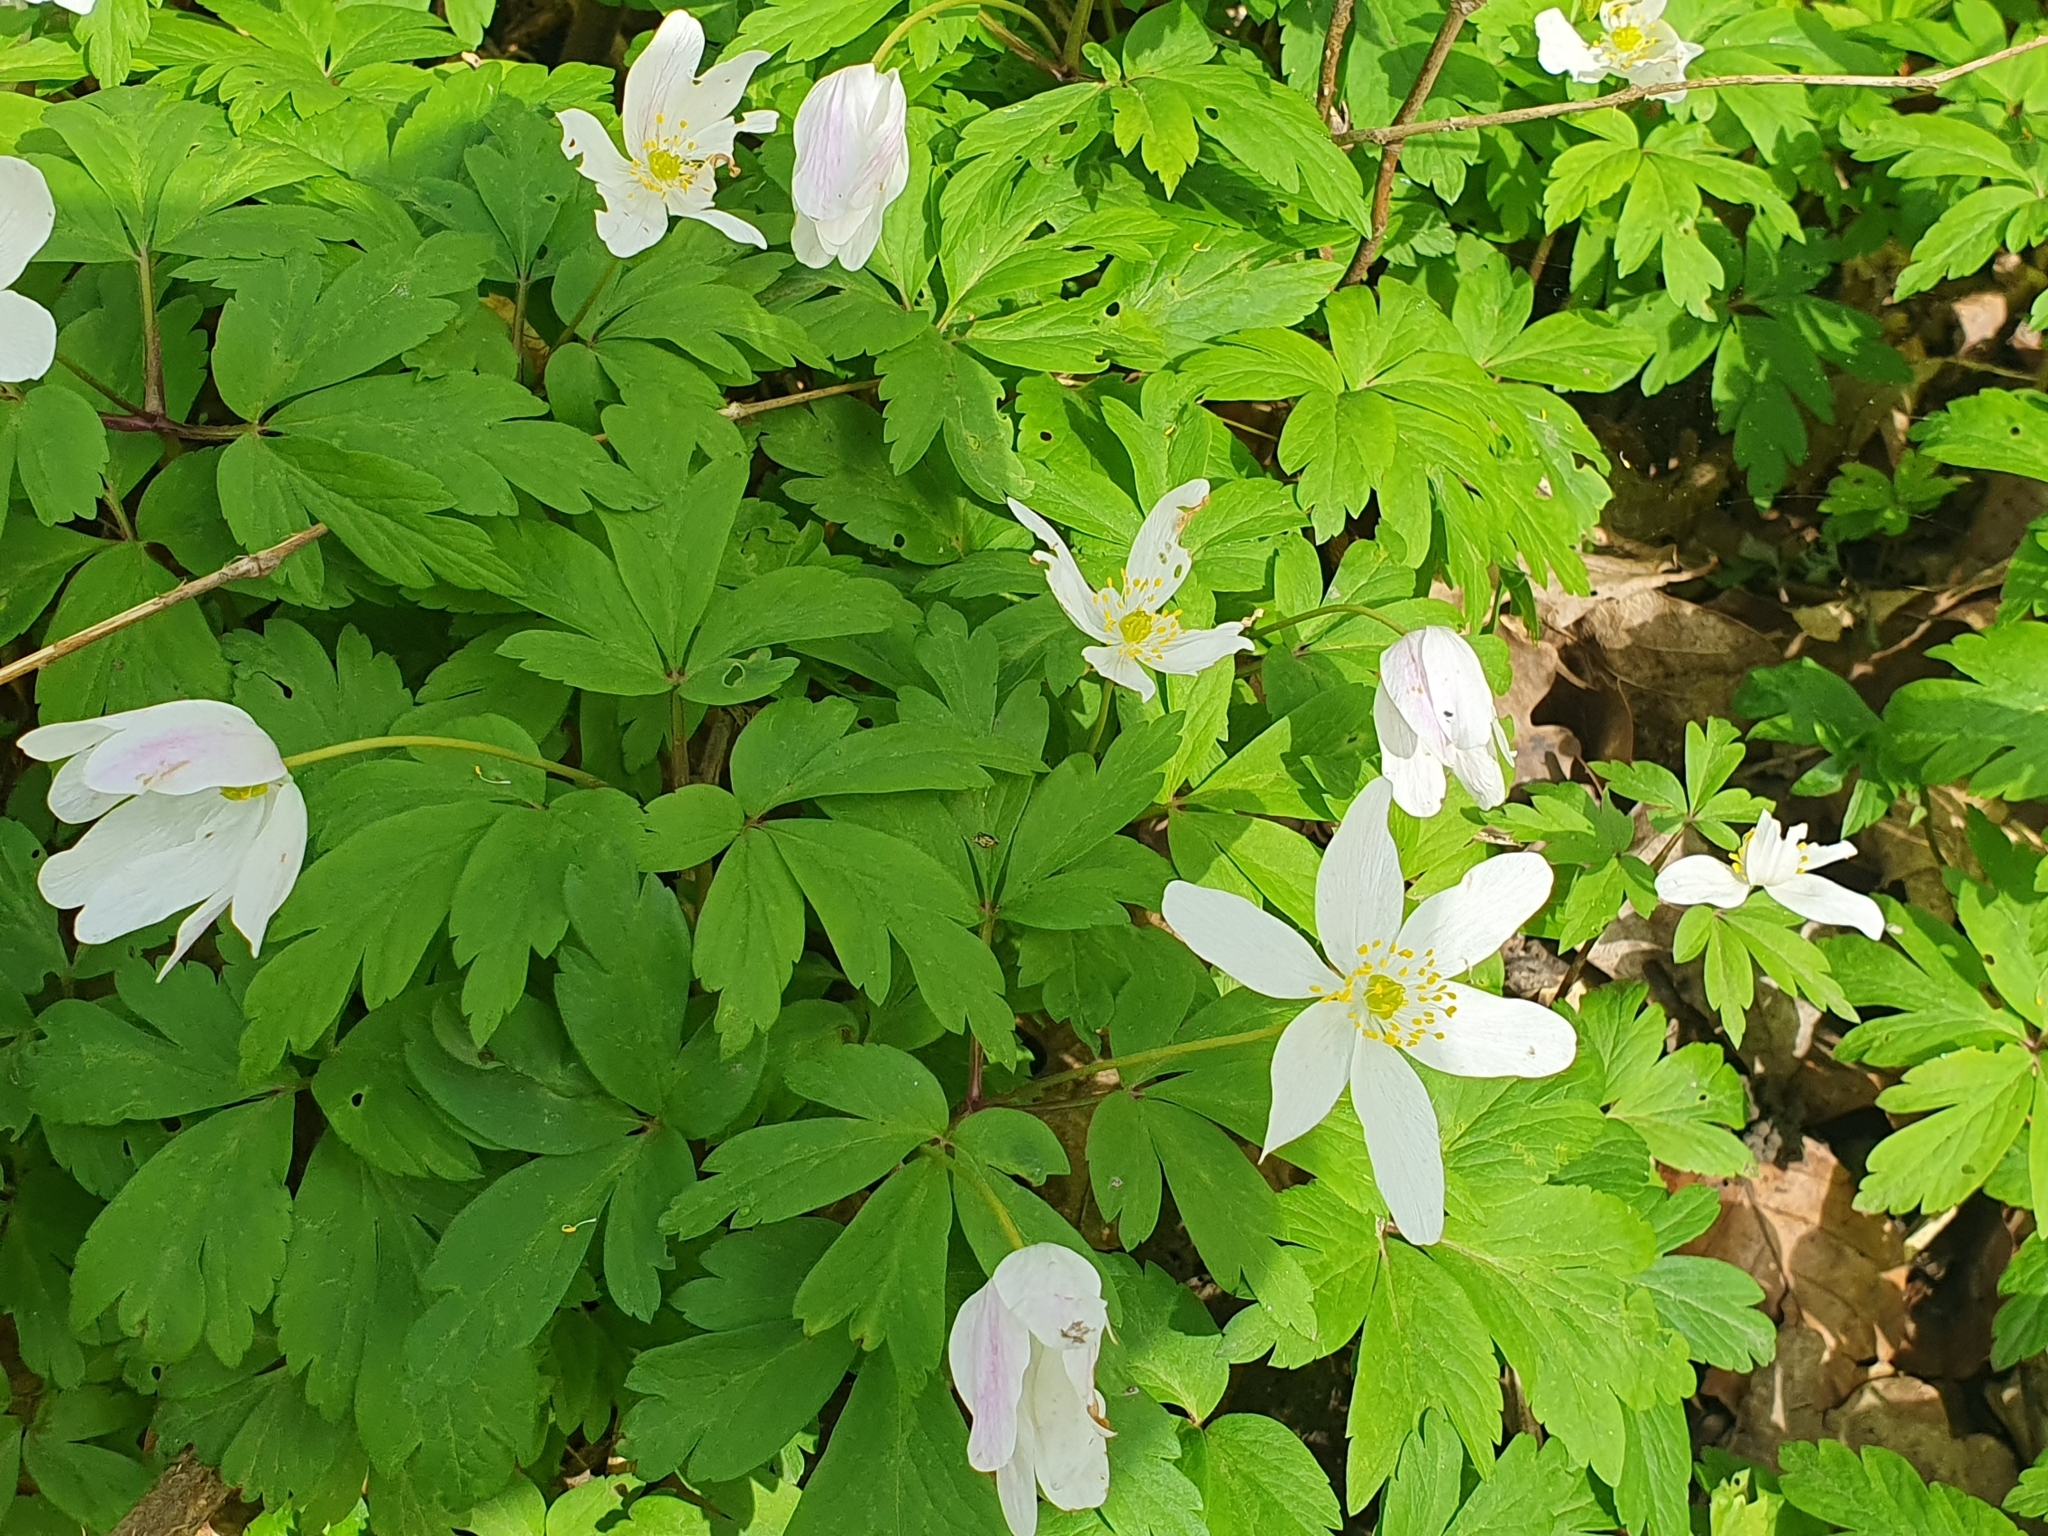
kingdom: Plantae
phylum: Tracheophyta
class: Magnoliopsida
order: Ranunculales
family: Ranunculaceae
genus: Anemone
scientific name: Anemone nemorosa
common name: Wood anemone
